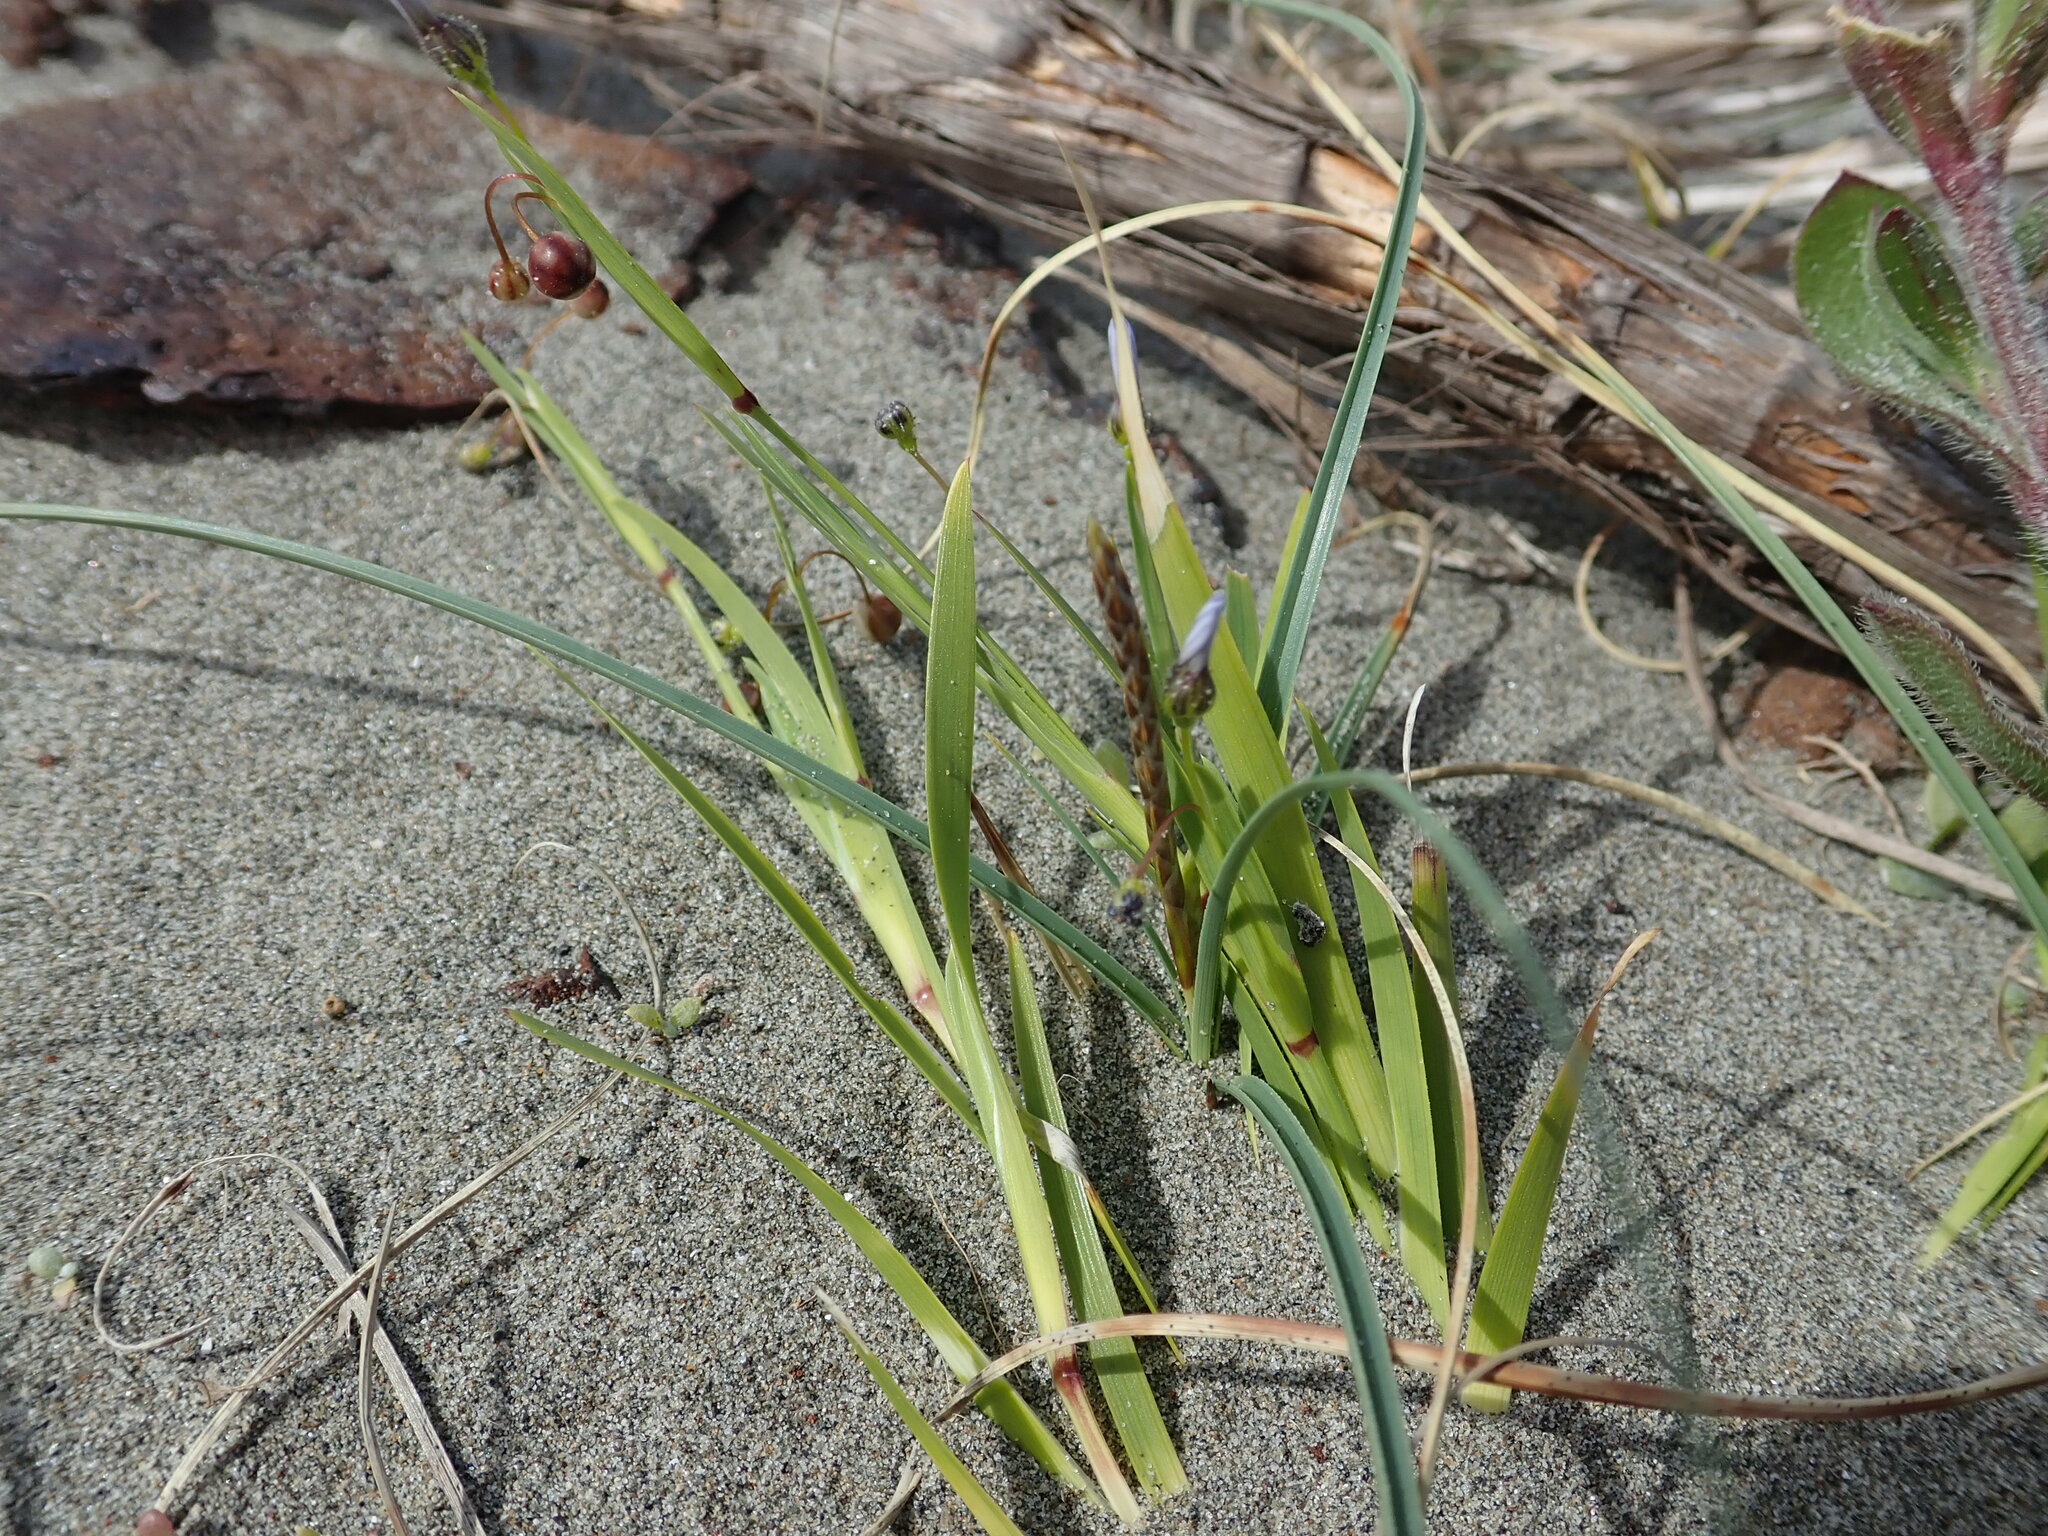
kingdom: Plantae
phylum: Tracheophyta
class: Liliopsida
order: Asparagales
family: Iridaceae
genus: Sisyrinchium
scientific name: Sisyrinchium micranthum
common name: Bermuda pigroot
